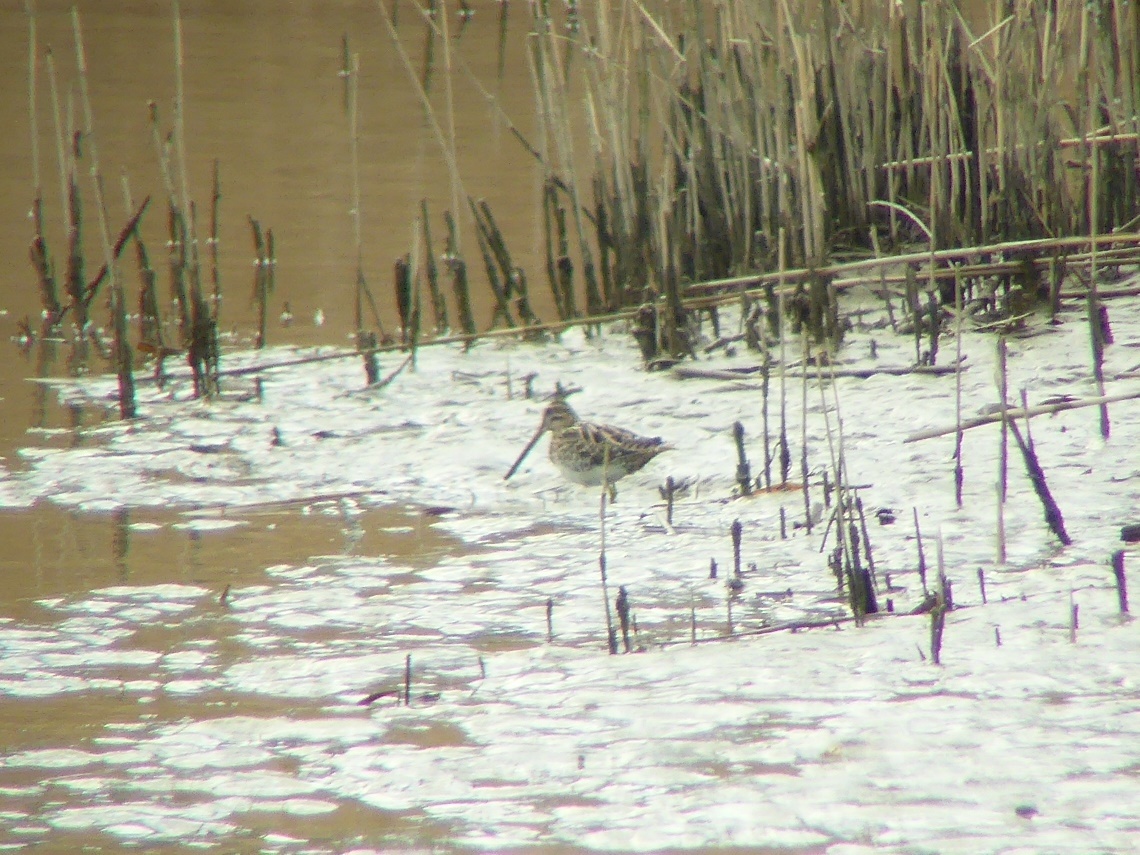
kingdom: Animalia
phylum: Chordata
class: Aves
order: Charadriiformes
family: Scolopacidae
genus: Gallinago
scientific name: Gallinago gallinago
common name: Common snipe
